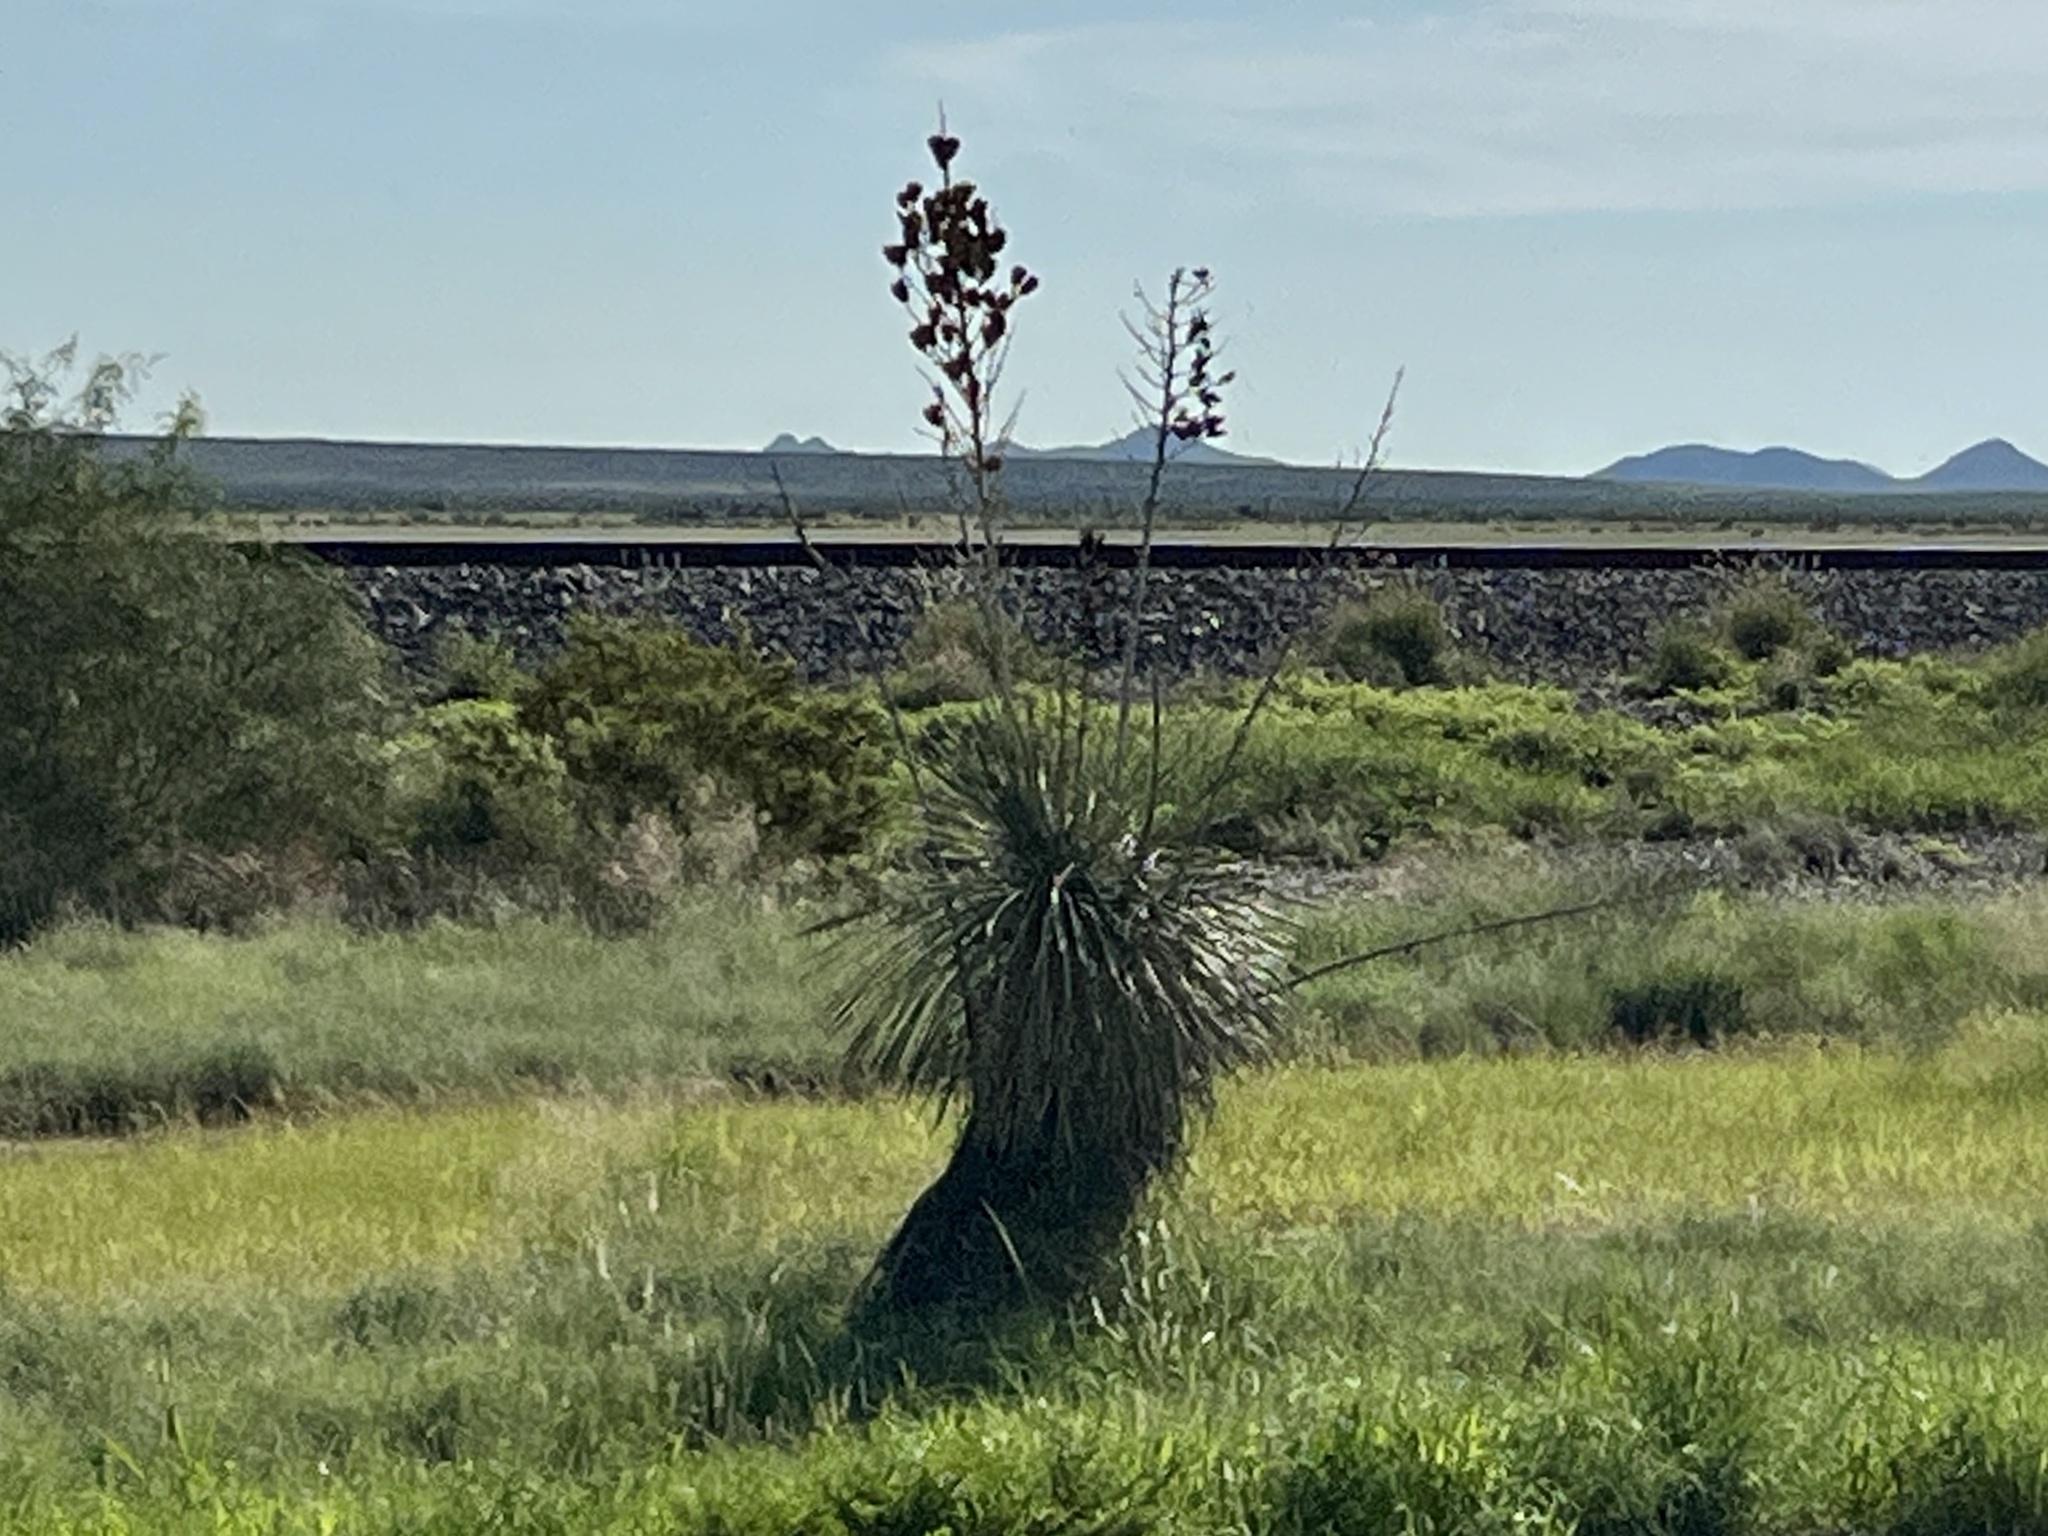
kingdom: Plantae
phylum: Tracheophyta
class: Liliopsida
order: Asparagales
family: Asparagaceae
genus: Yucca
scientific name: Yucca elata
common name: Palmella
